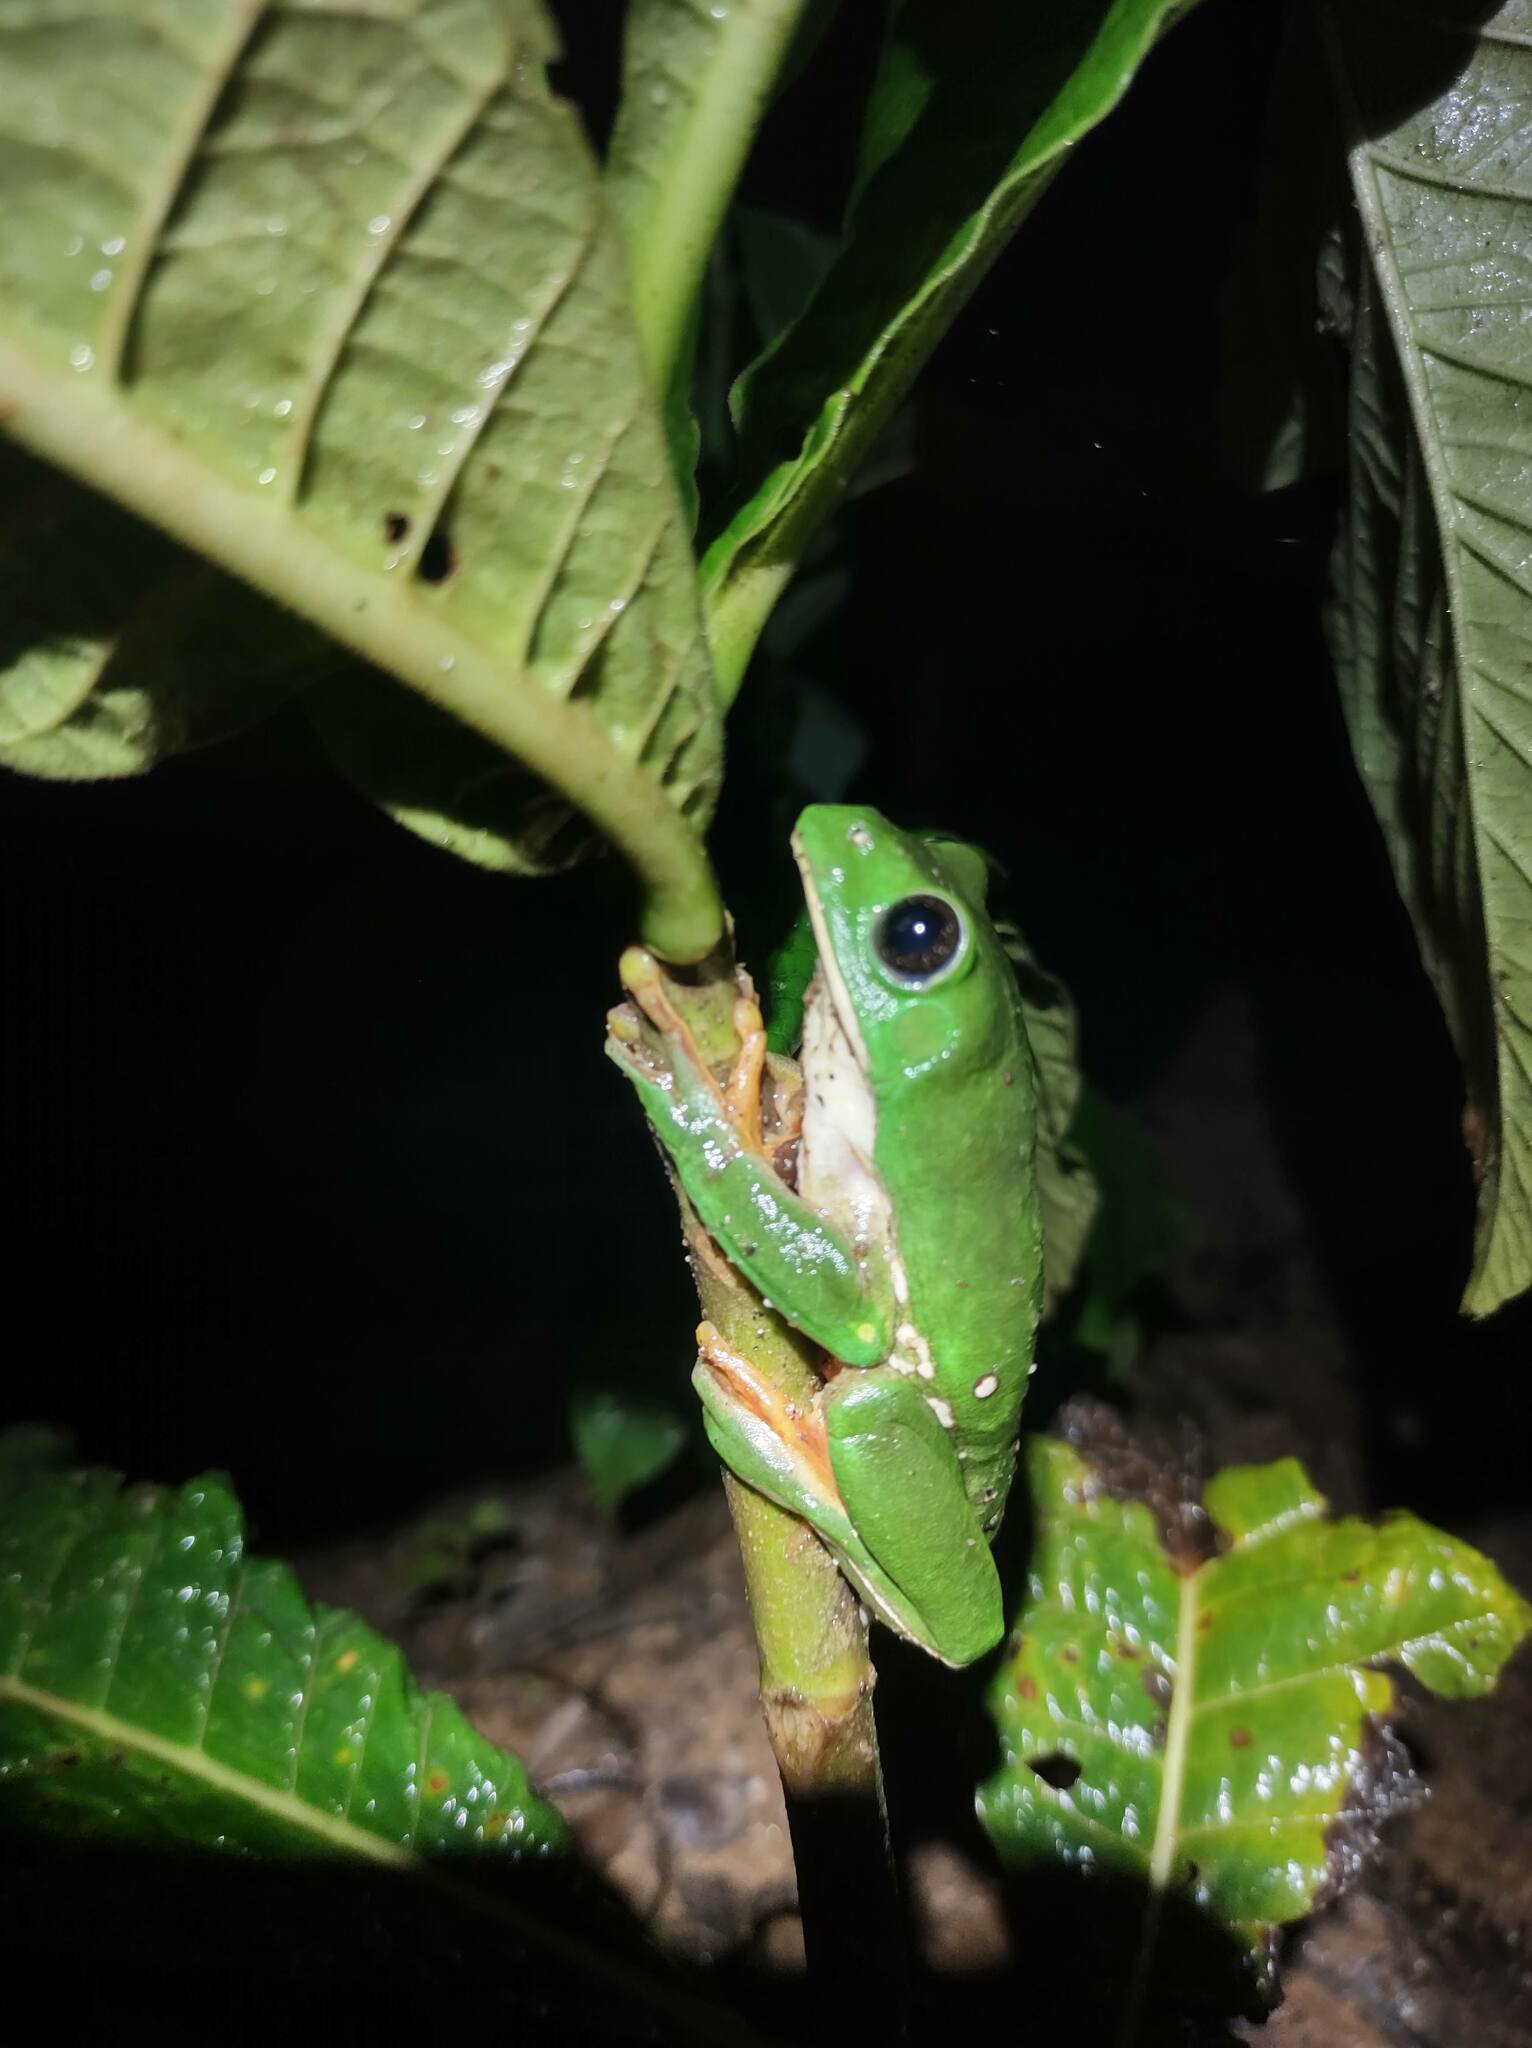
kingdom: Animalia
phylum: Chordata
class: Amphibia
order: Anura
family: Phyllomedusidae
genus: Agalychnis
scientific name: Agalychnis dacnicolor
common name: Mexican giant tree frog
